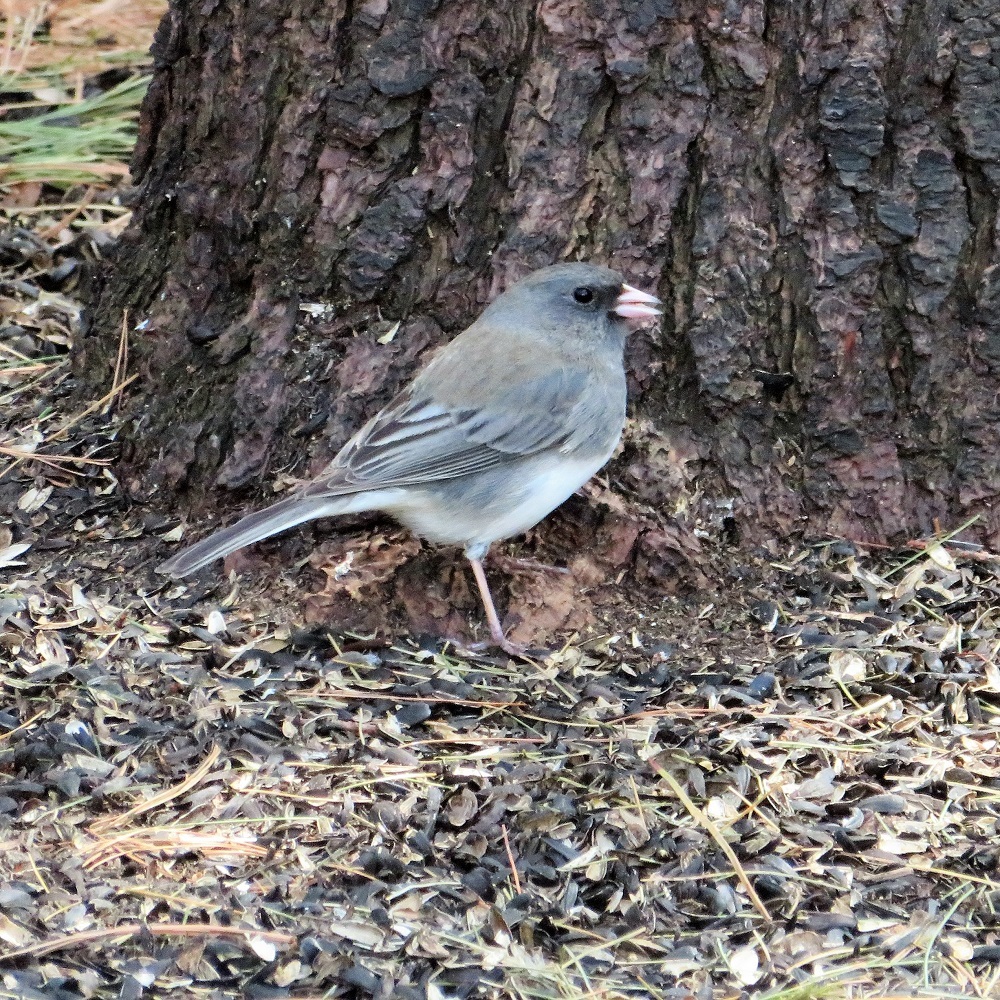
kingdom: Animalia
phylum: Chordata
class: Aves
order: Passeriformes
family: Passerellidae
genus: Junco
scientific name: Junco hyemalis
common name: Dark-eyed junco
